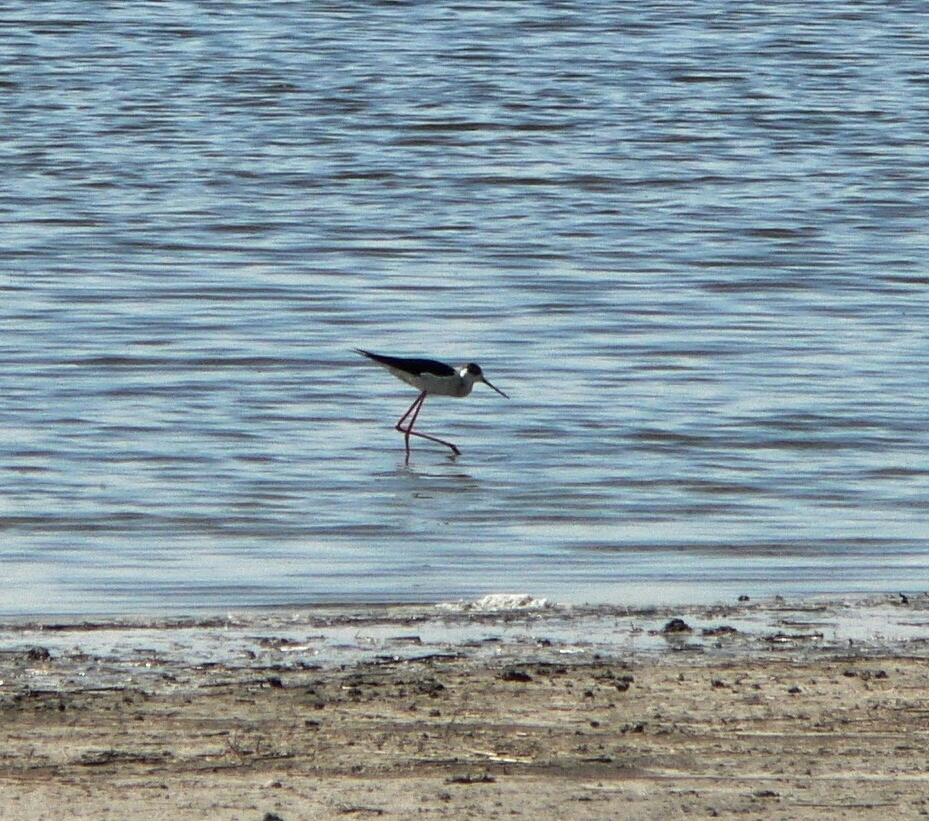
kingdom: Animalia
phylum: Chordata
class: Aves
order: Charadriiformes
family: Recurvirostridae
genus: Himantopus
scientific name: Himantopus himantopus
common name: Black-winged stilt
